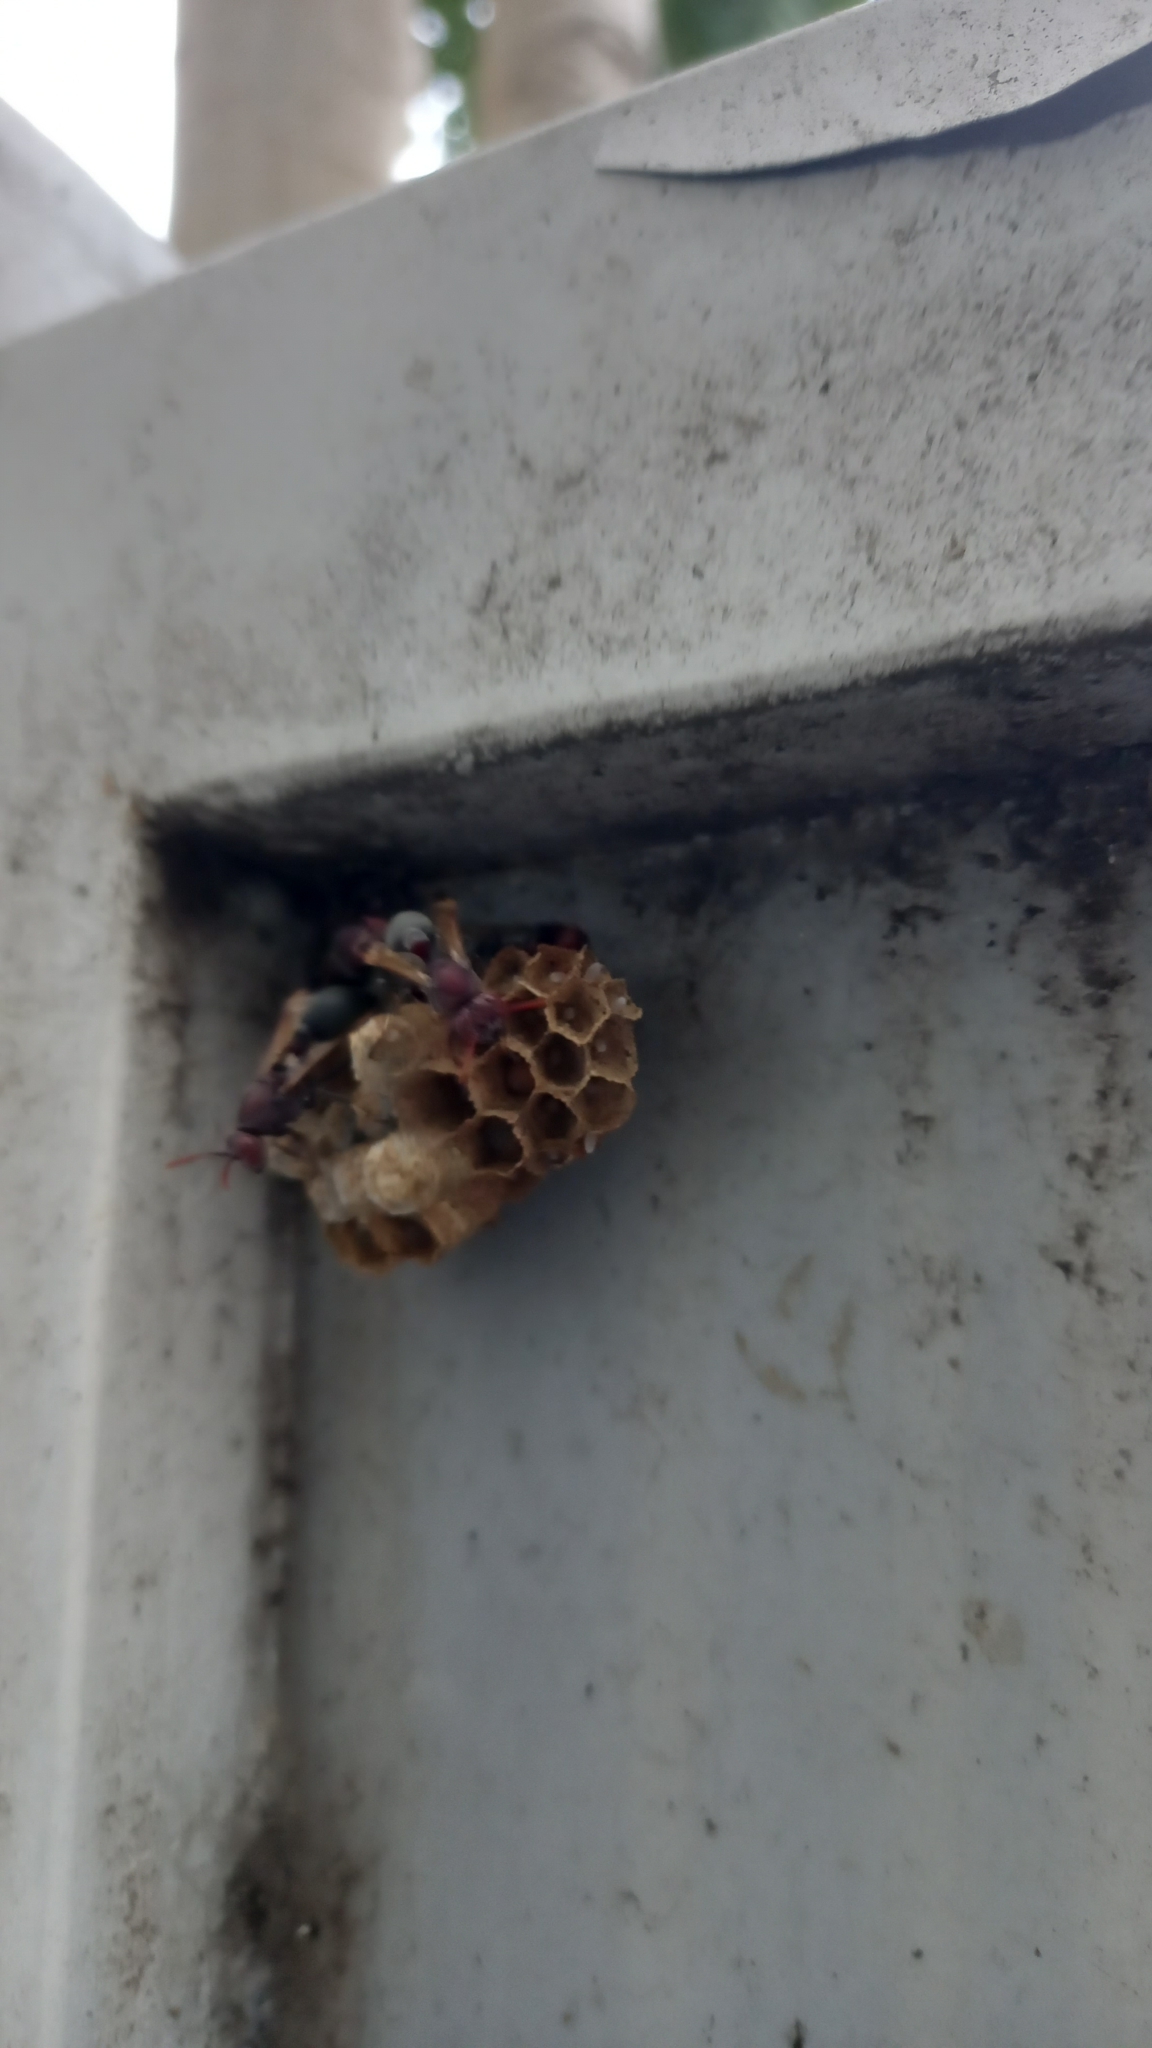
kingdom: Animalia
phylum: Arthropoda
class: Insecta
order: Hymenoptera
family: Vespidae
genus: Ropalidia
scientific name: Ropalidia magnanima
